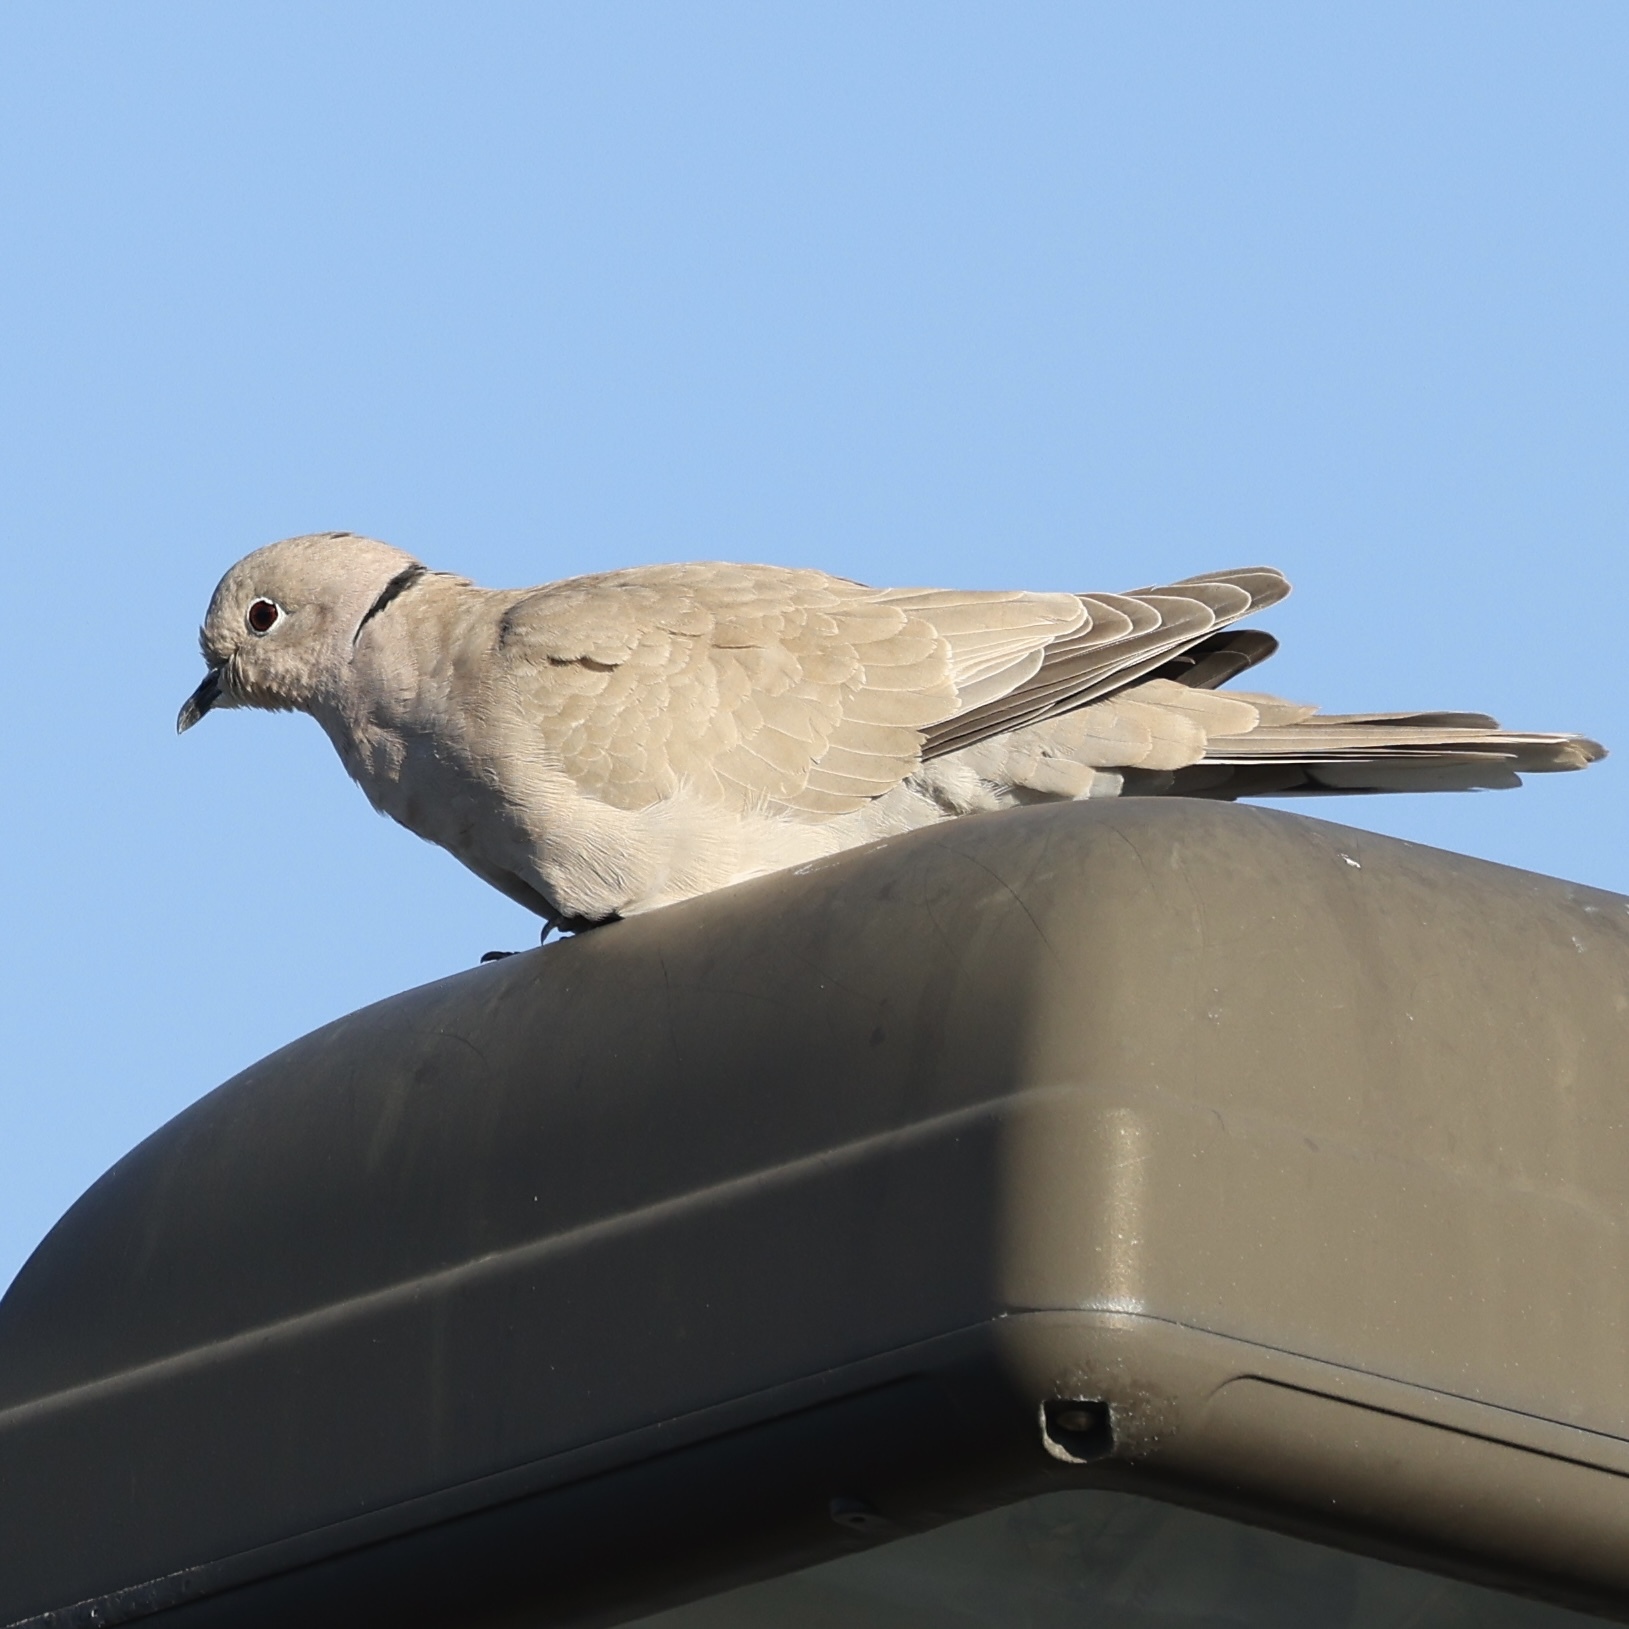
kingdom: Animalia
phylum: Chordata
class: Aves
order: Columbiformes
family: Columbidae
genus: Streptopelia
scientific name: Streptopelia decaocto
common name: Eurasian collared dove
